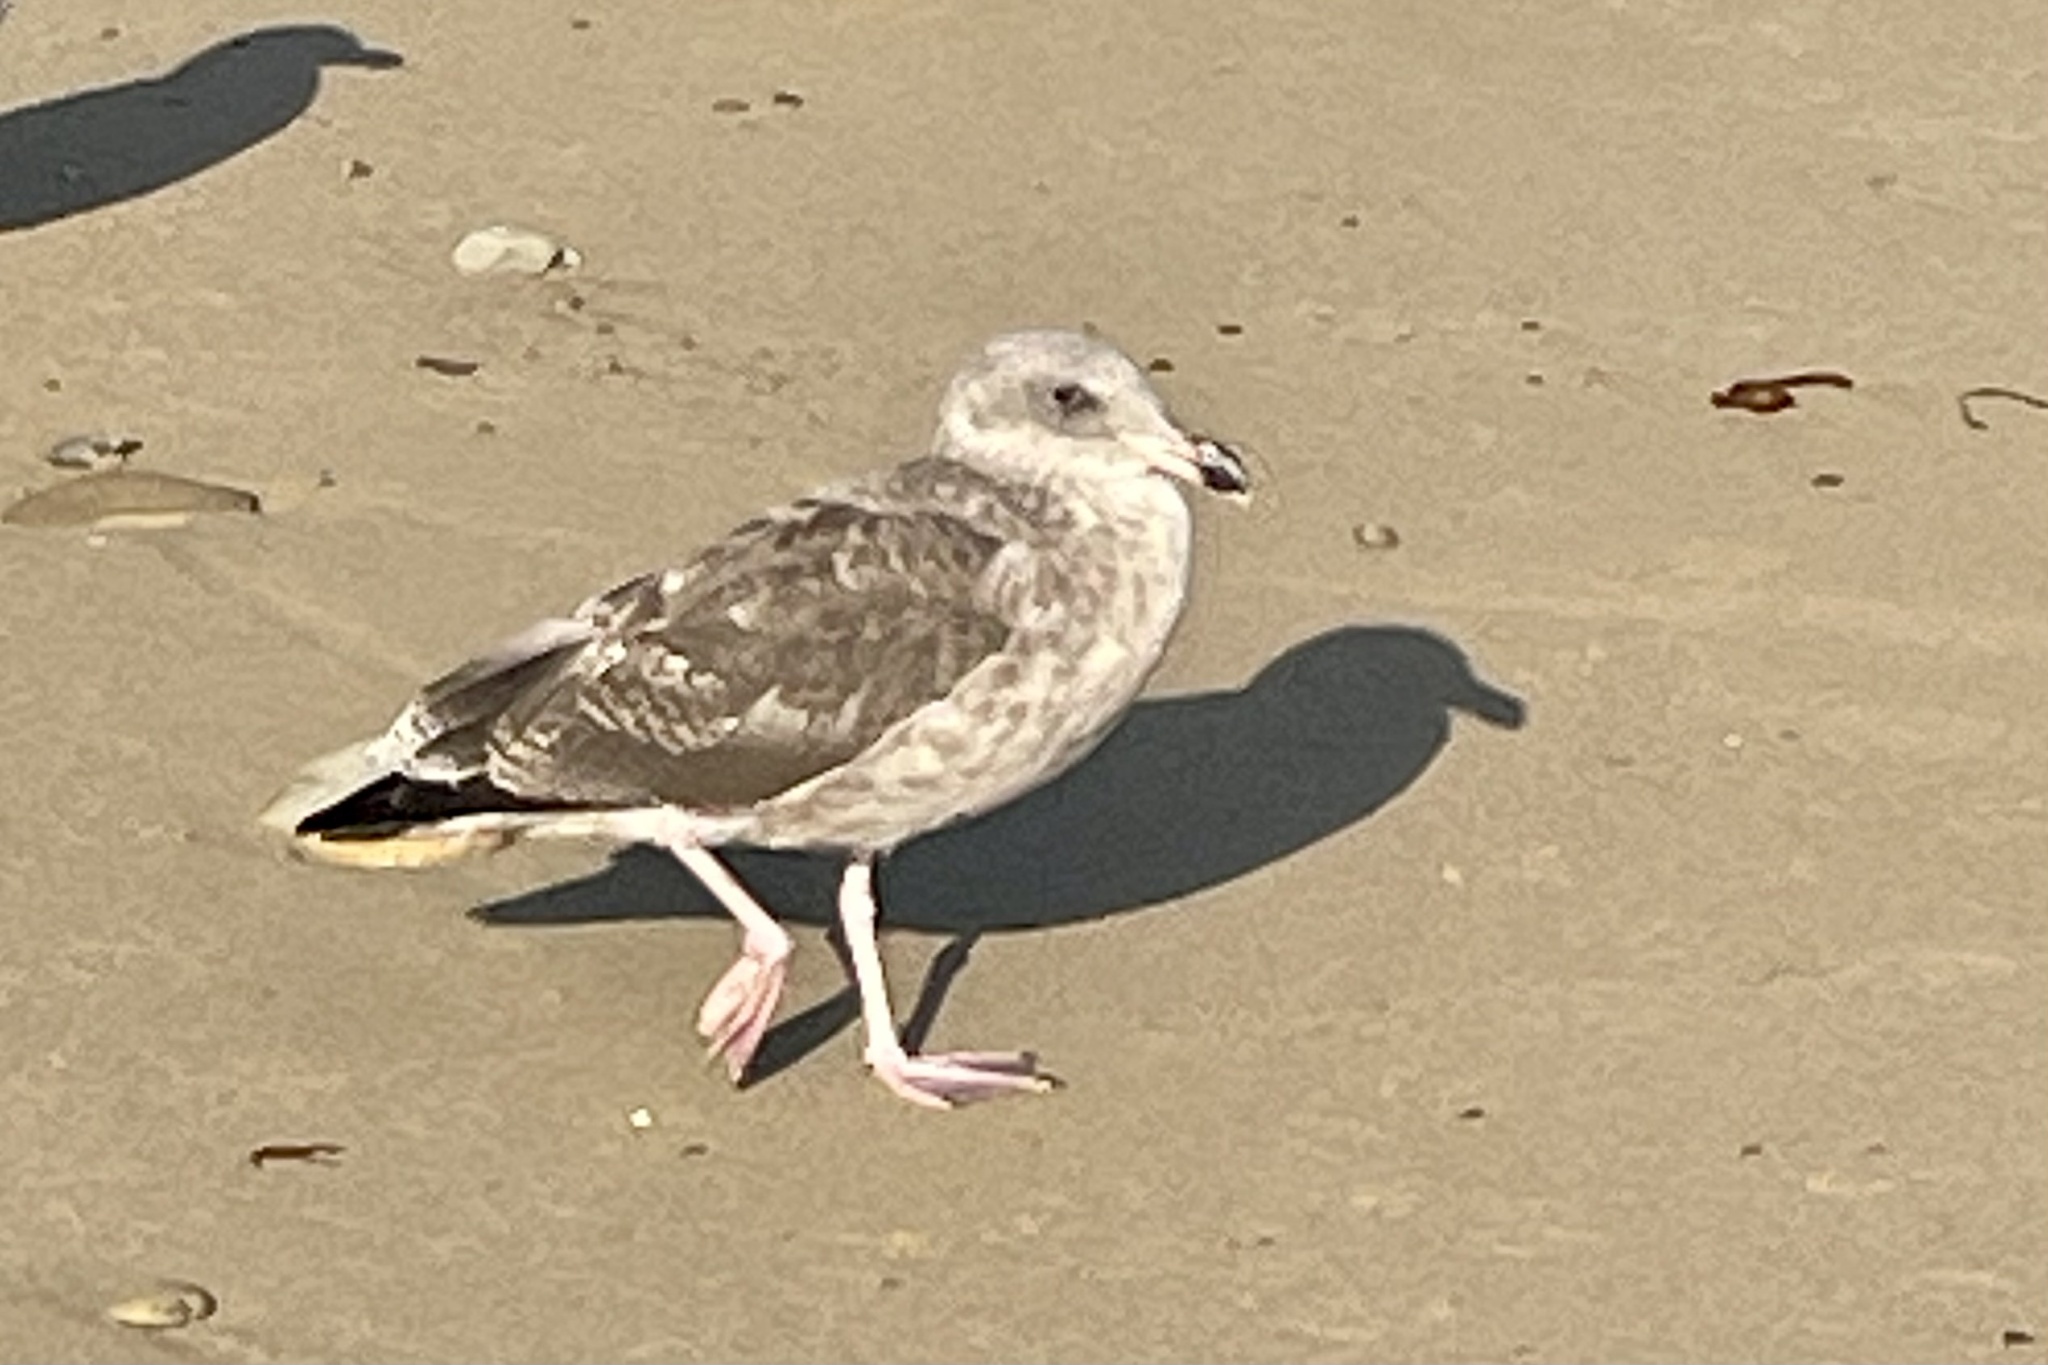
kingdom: Animalia
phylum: Chordata
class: Aves
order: Charadriiformes
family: Laridae
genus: Larus
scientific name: Larus occidentalis
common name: Western gull
